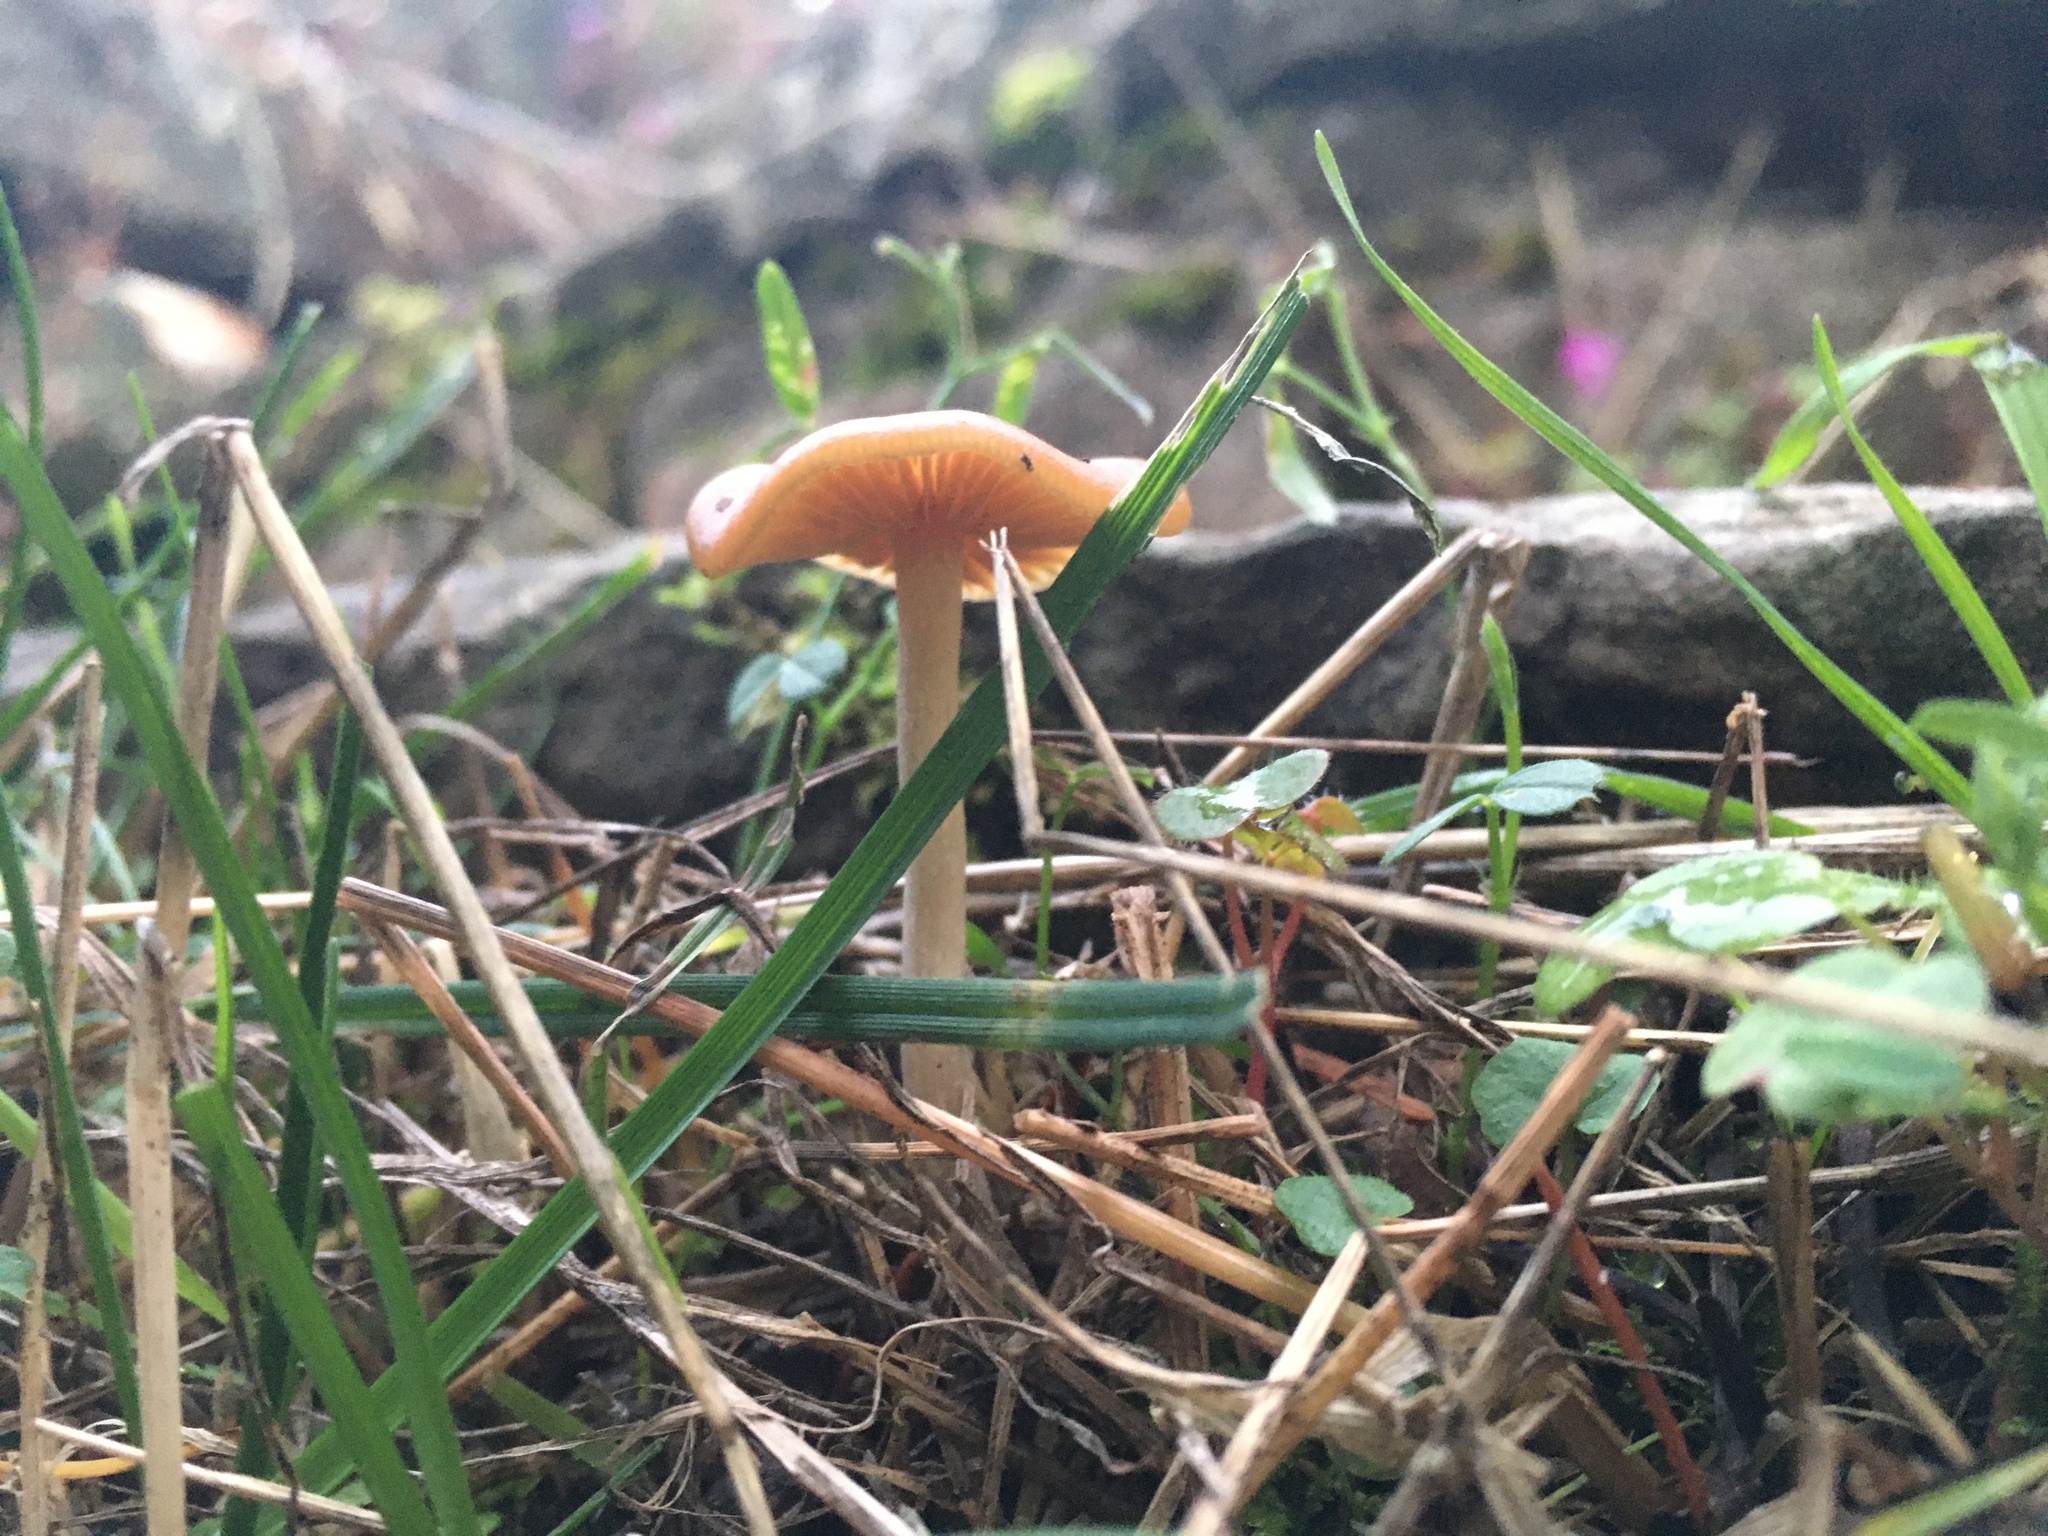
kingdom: Fungi
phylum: Basidiomycota
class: Agaricomycetes
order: Agaricales
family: Hymenogastraceae
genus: Psilocybe
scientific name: Psilocybe cyanescens
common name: Blueleg brownie
